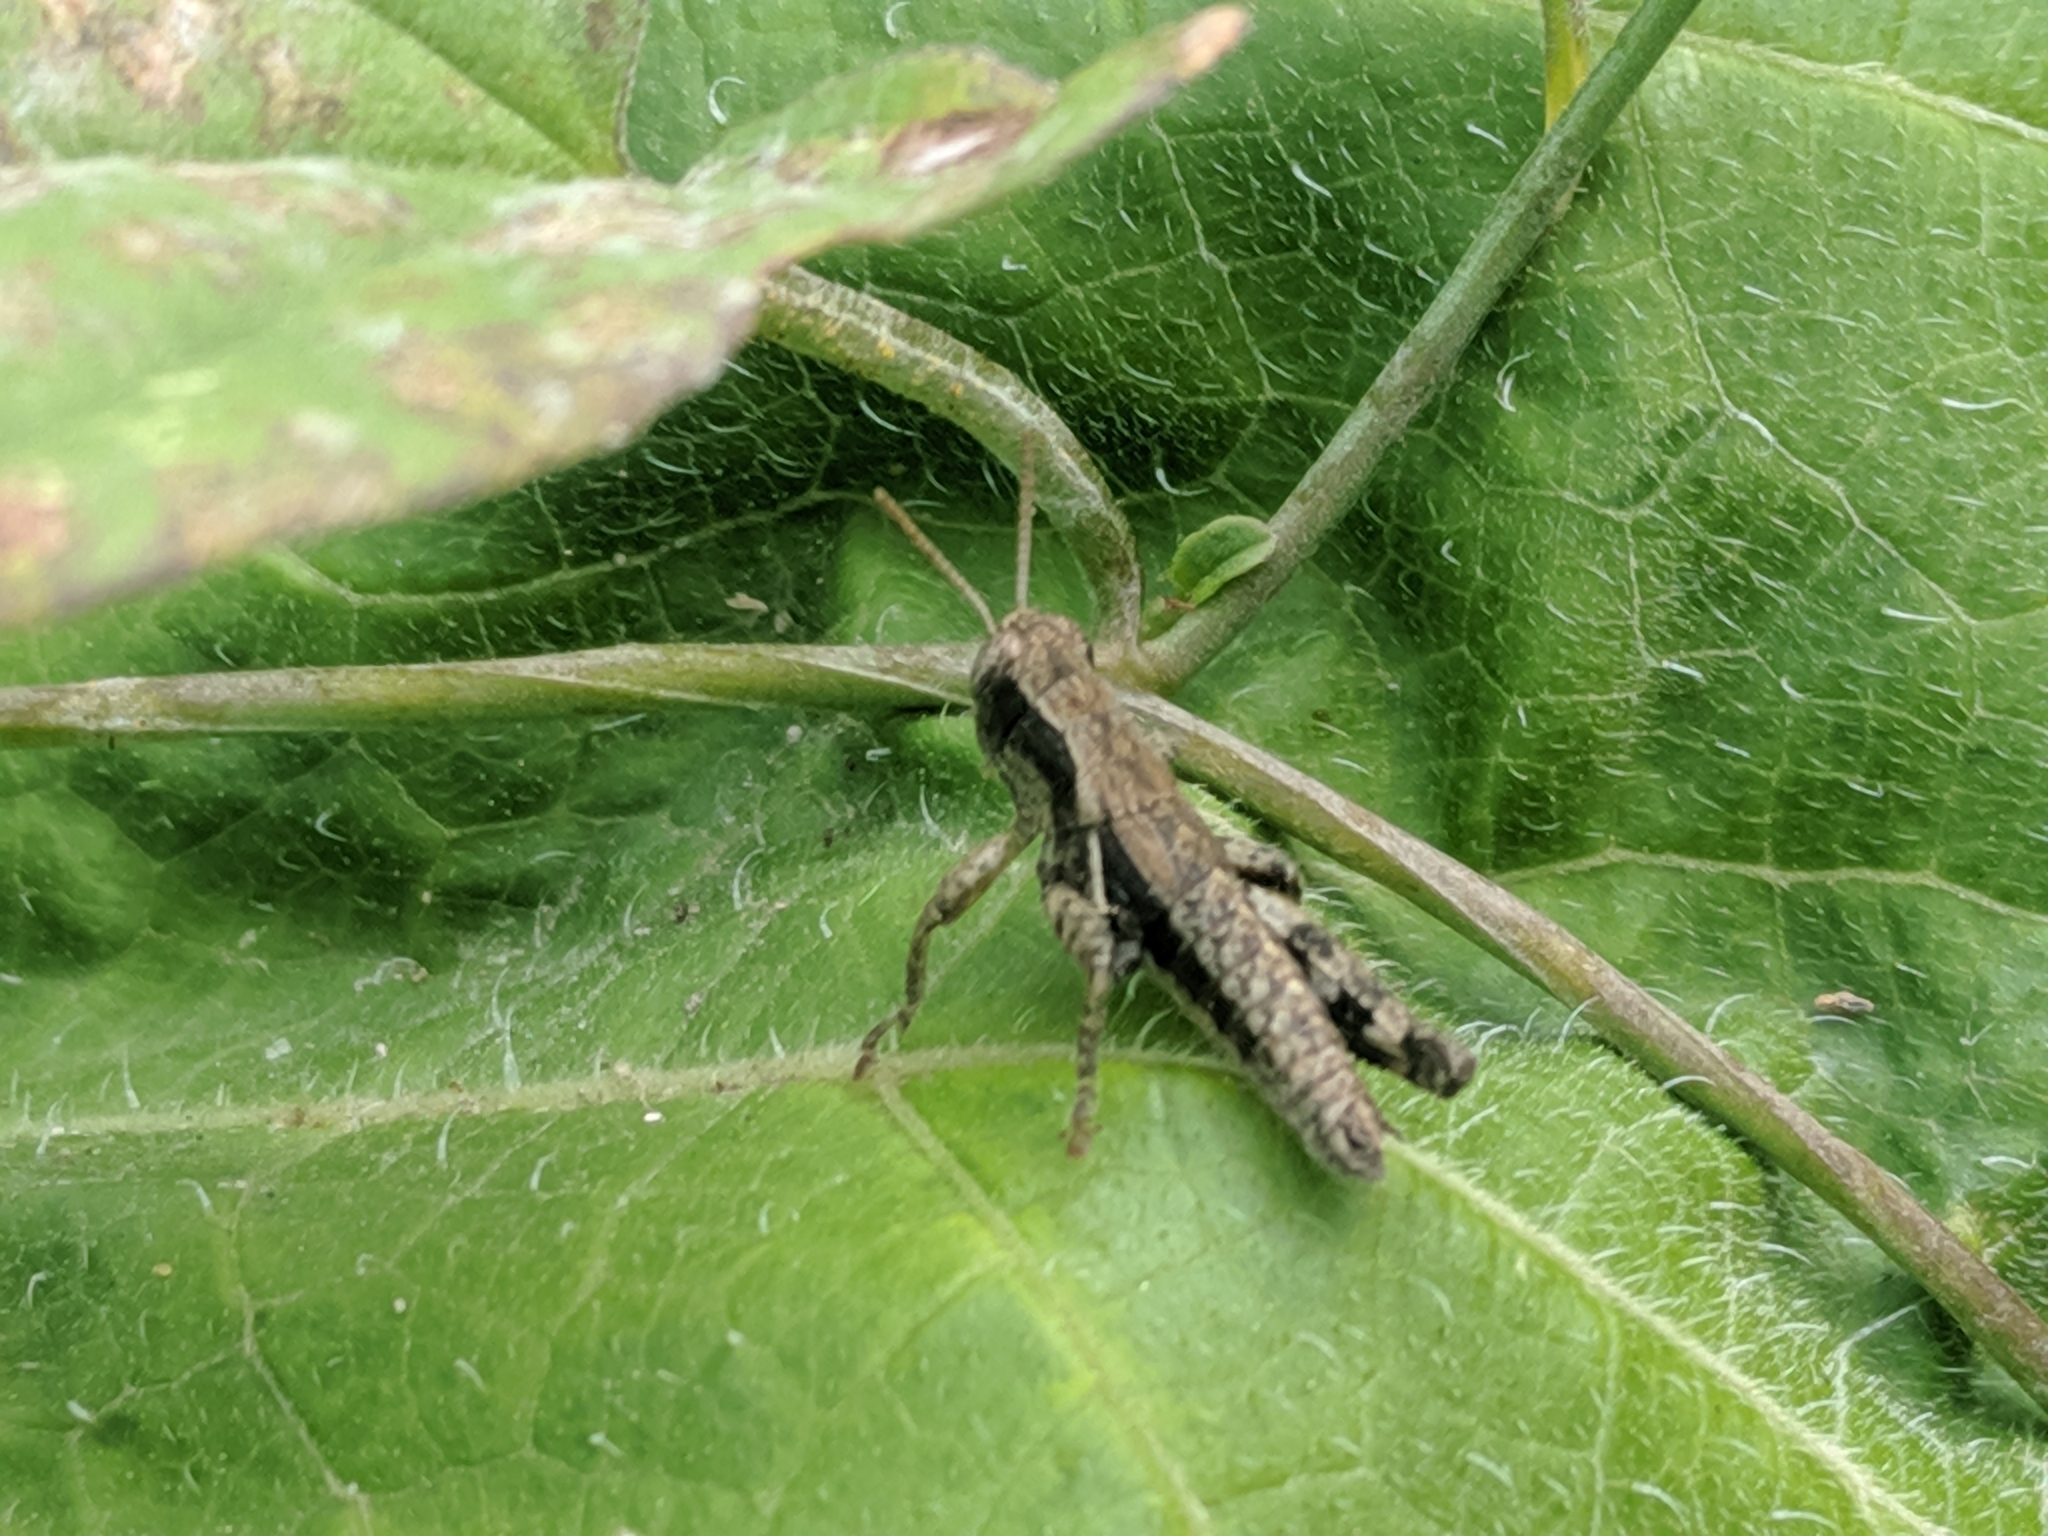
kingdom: Animalia
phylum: Arthropoda
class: Insecta
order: Orthoptera
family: Acrididae
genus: Pezotettix
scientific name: Pezotettix giornae
